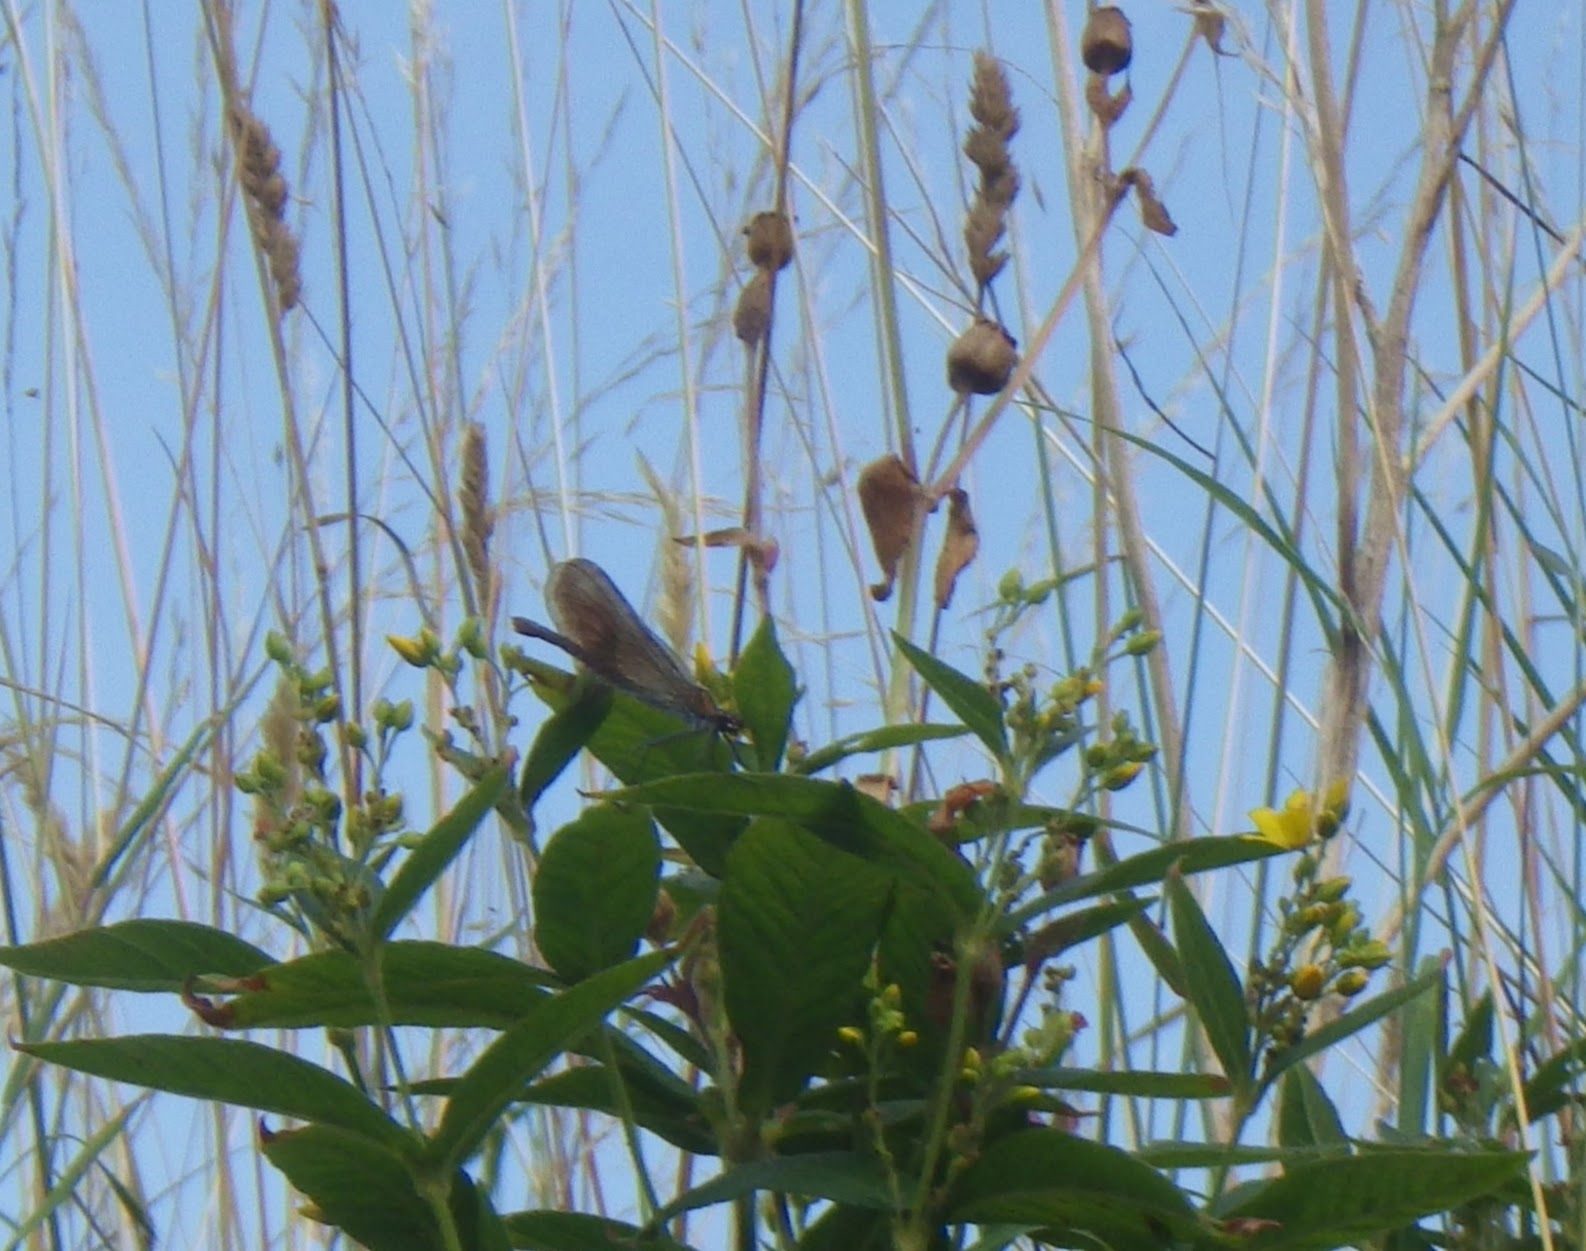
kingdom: Animalia
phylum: Arthropoda
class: Insecta
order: Odonata
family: Calopterygidae
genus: Calopteryx
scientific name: Calopteryx virgo
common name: Beautiful demoiselle
